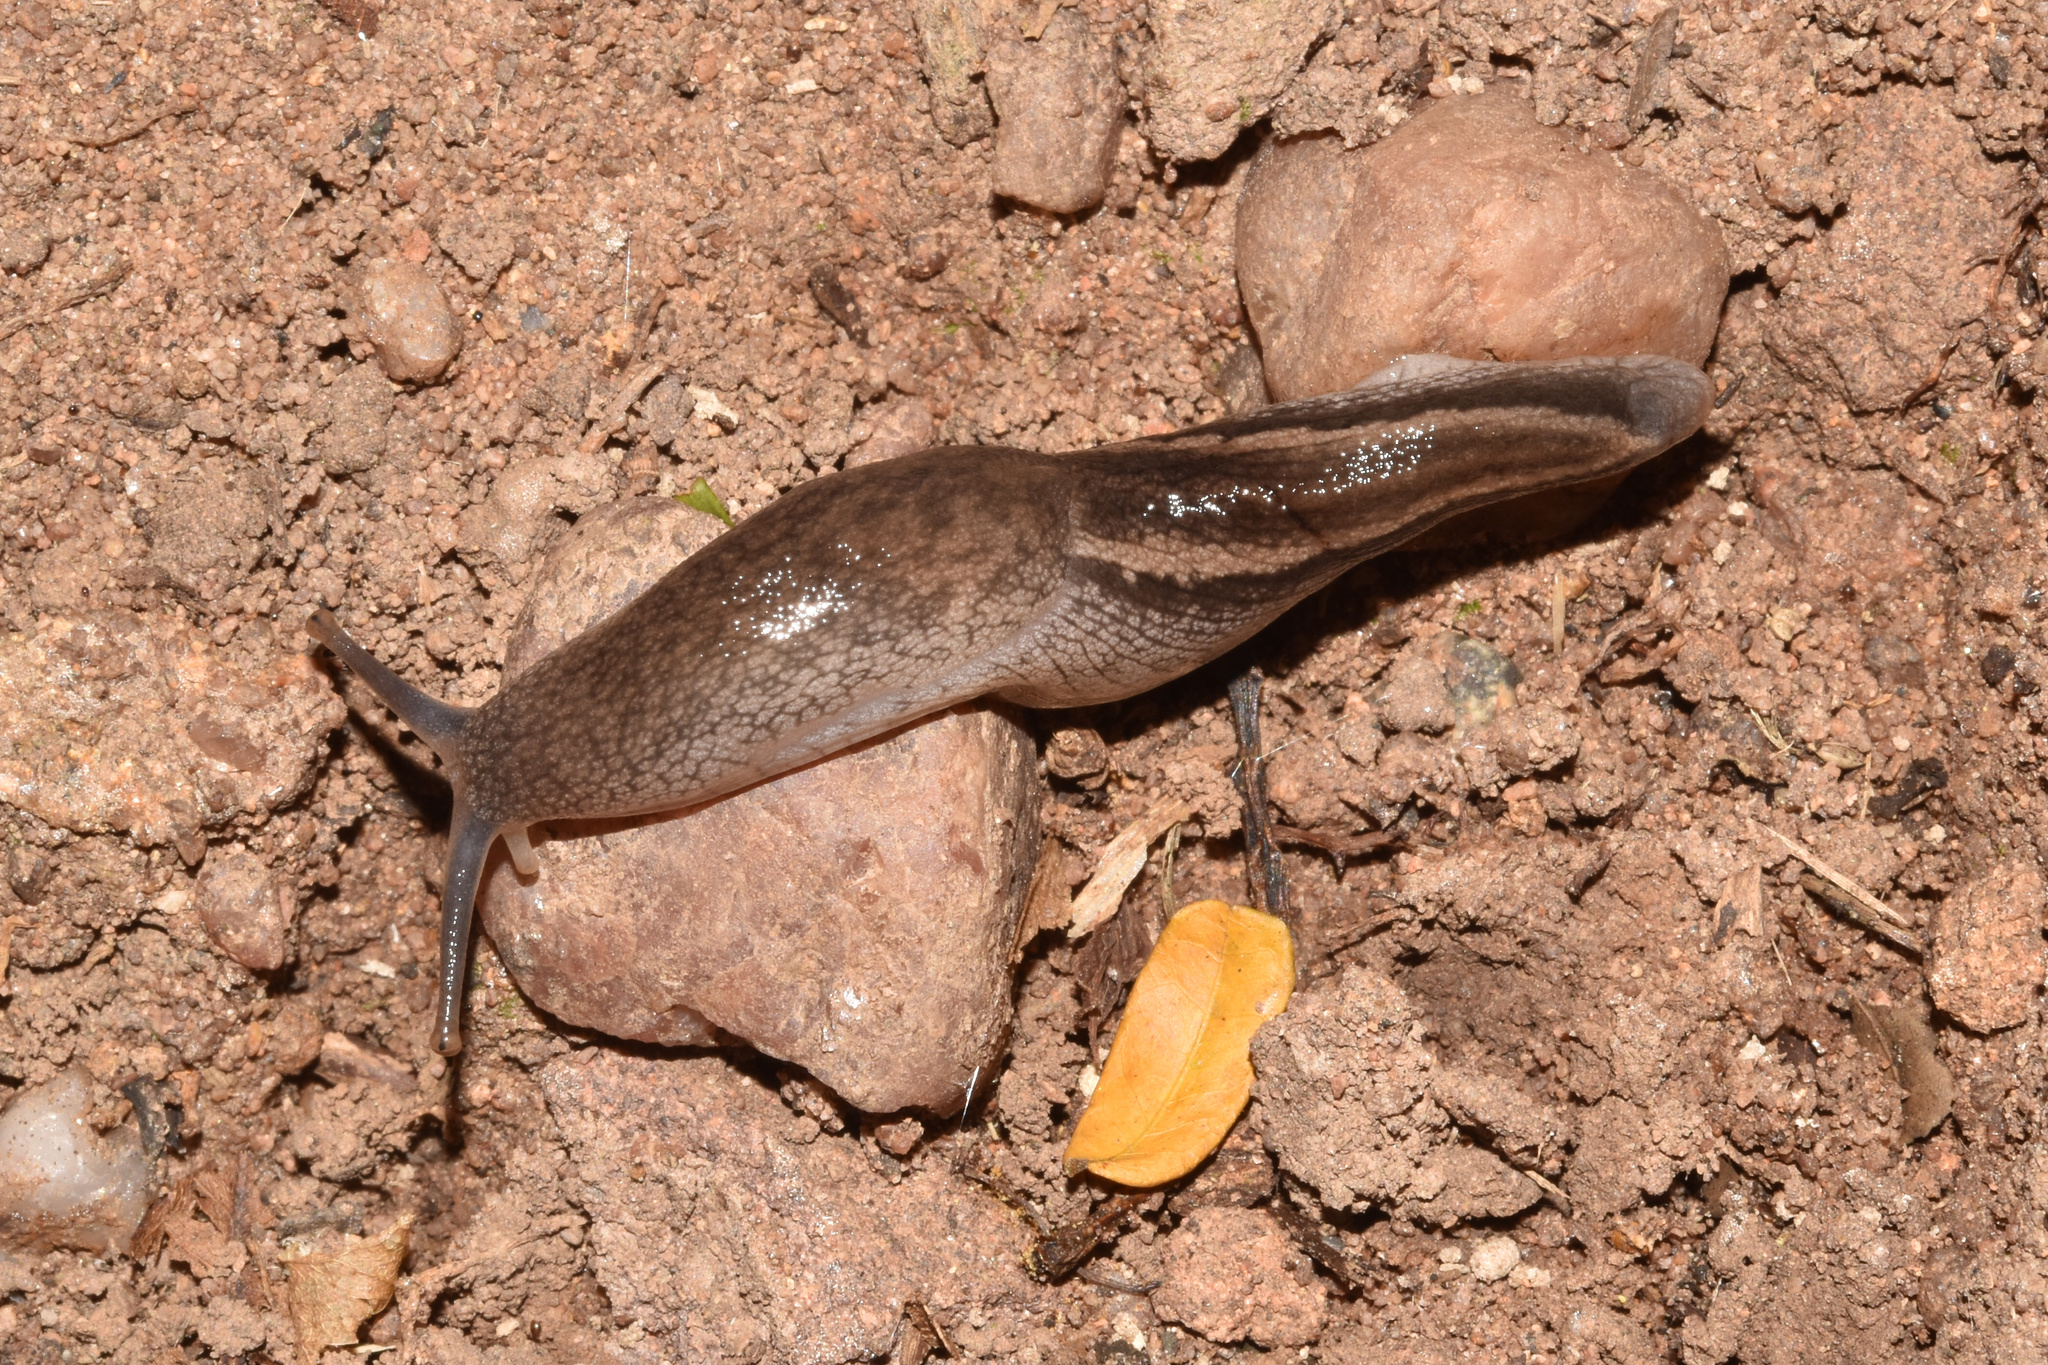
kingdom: Animalia
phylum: Mollusca
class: Gastropoda
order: Stylommatophora
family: Urocyclidae
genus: Urocyclus
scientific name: Urocyclus kirkii
